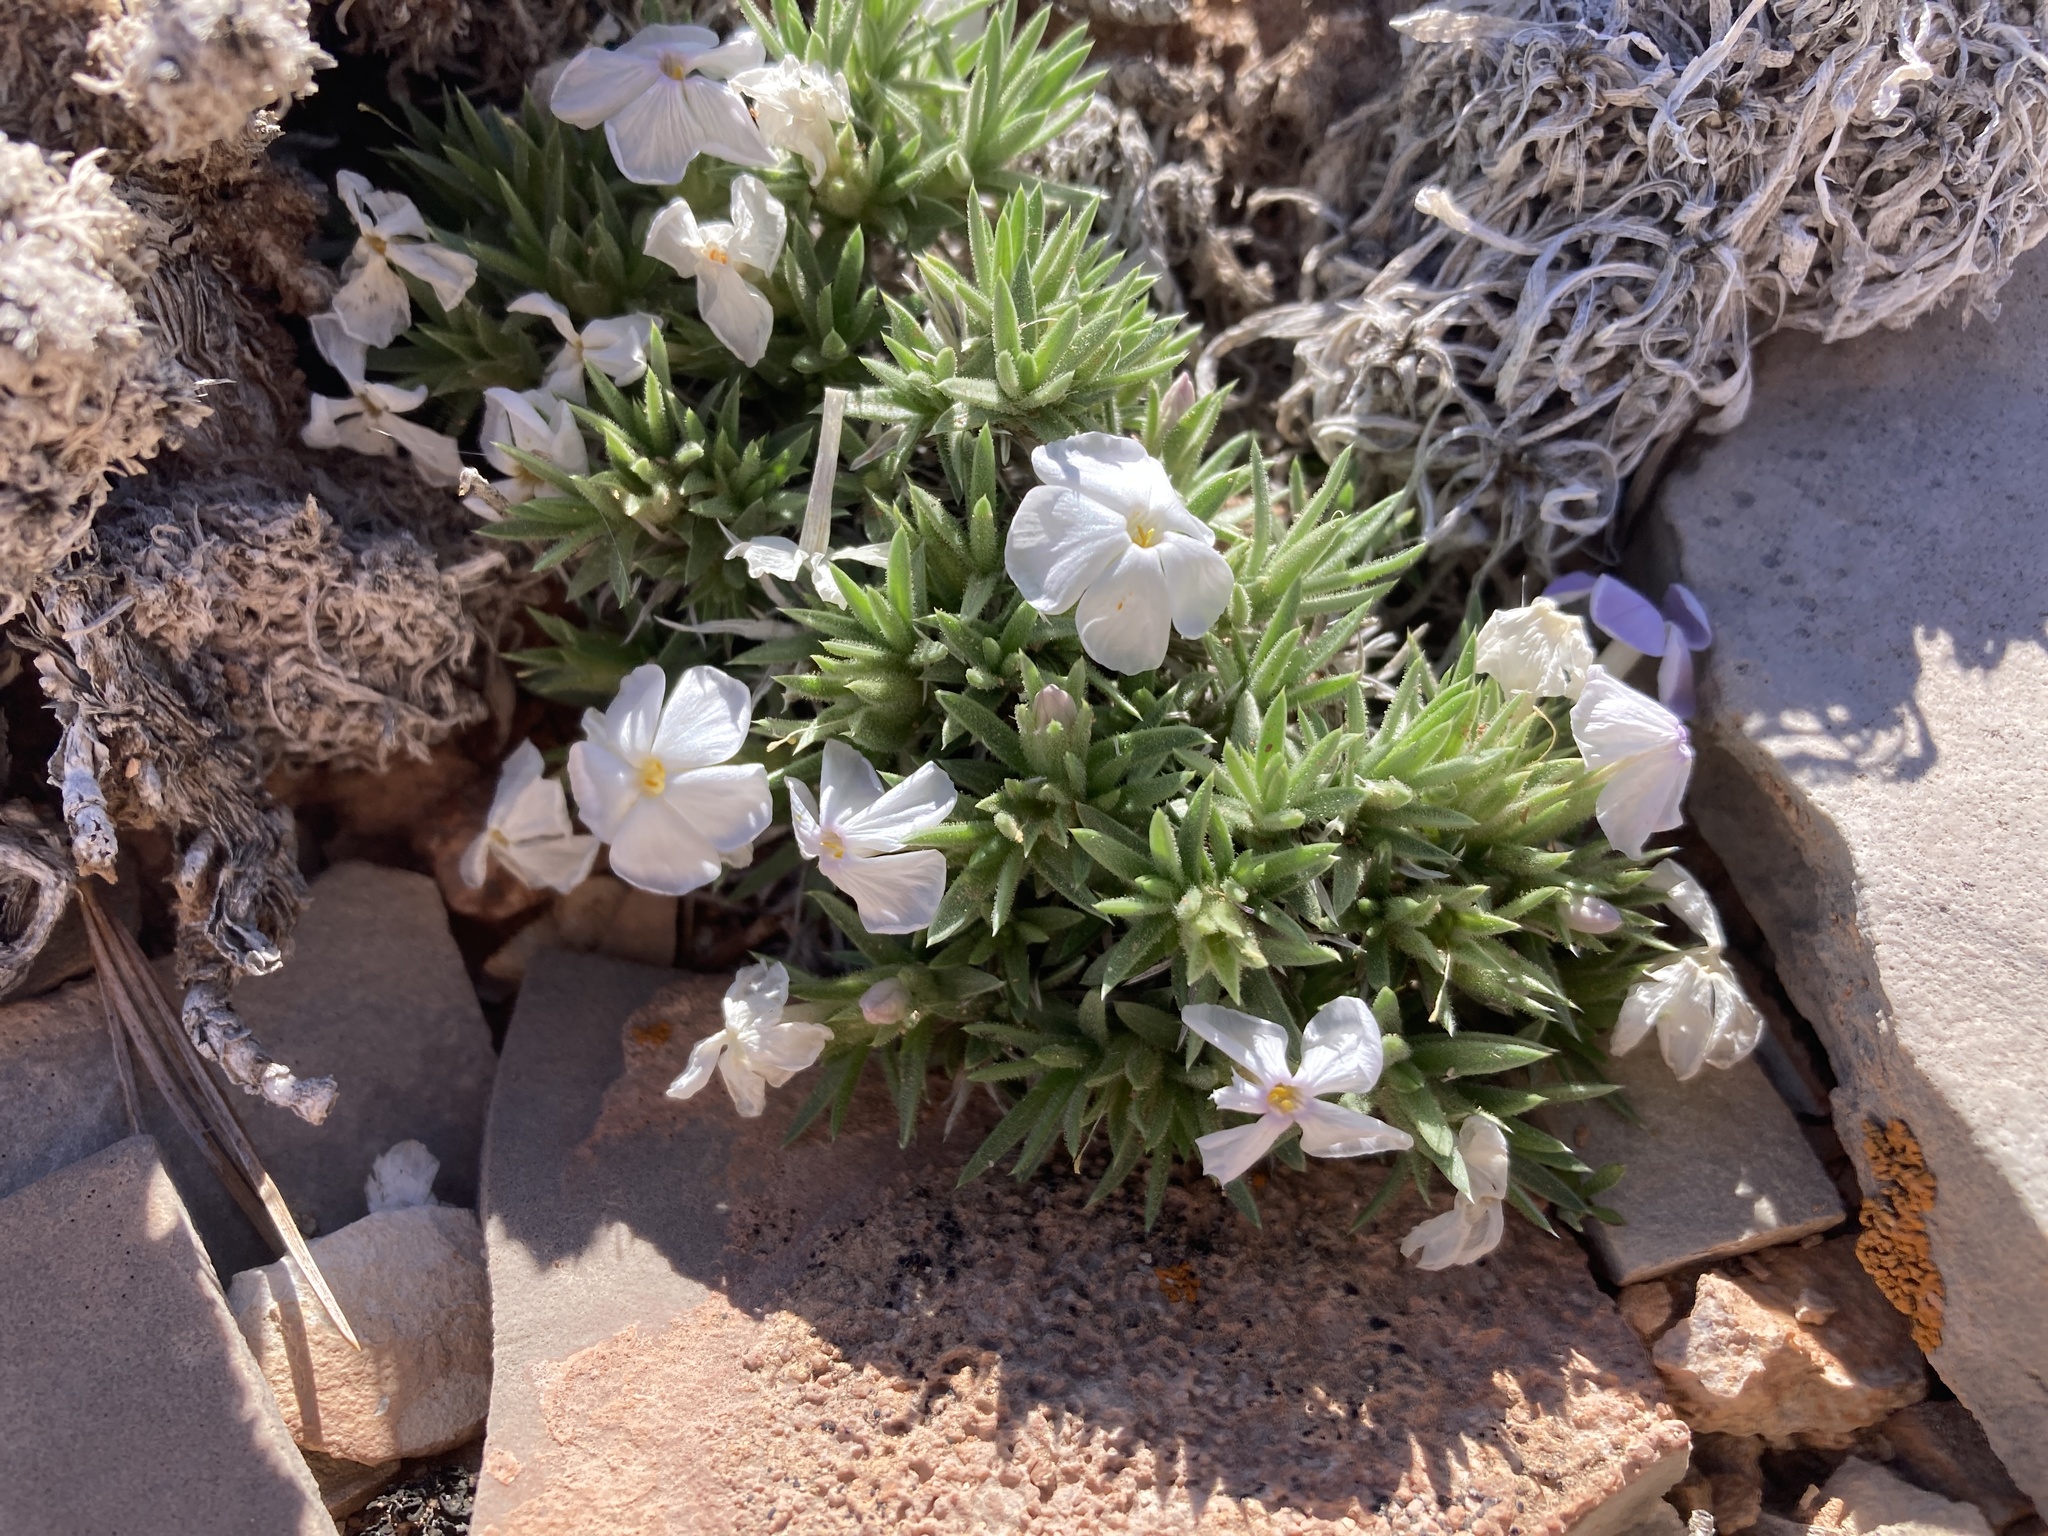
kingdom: Plantae
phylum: Tracheophyta
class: Magnoliopsida
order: Ericales
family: Polemoniaceae
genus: Phlox
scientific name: Phlox pungens
